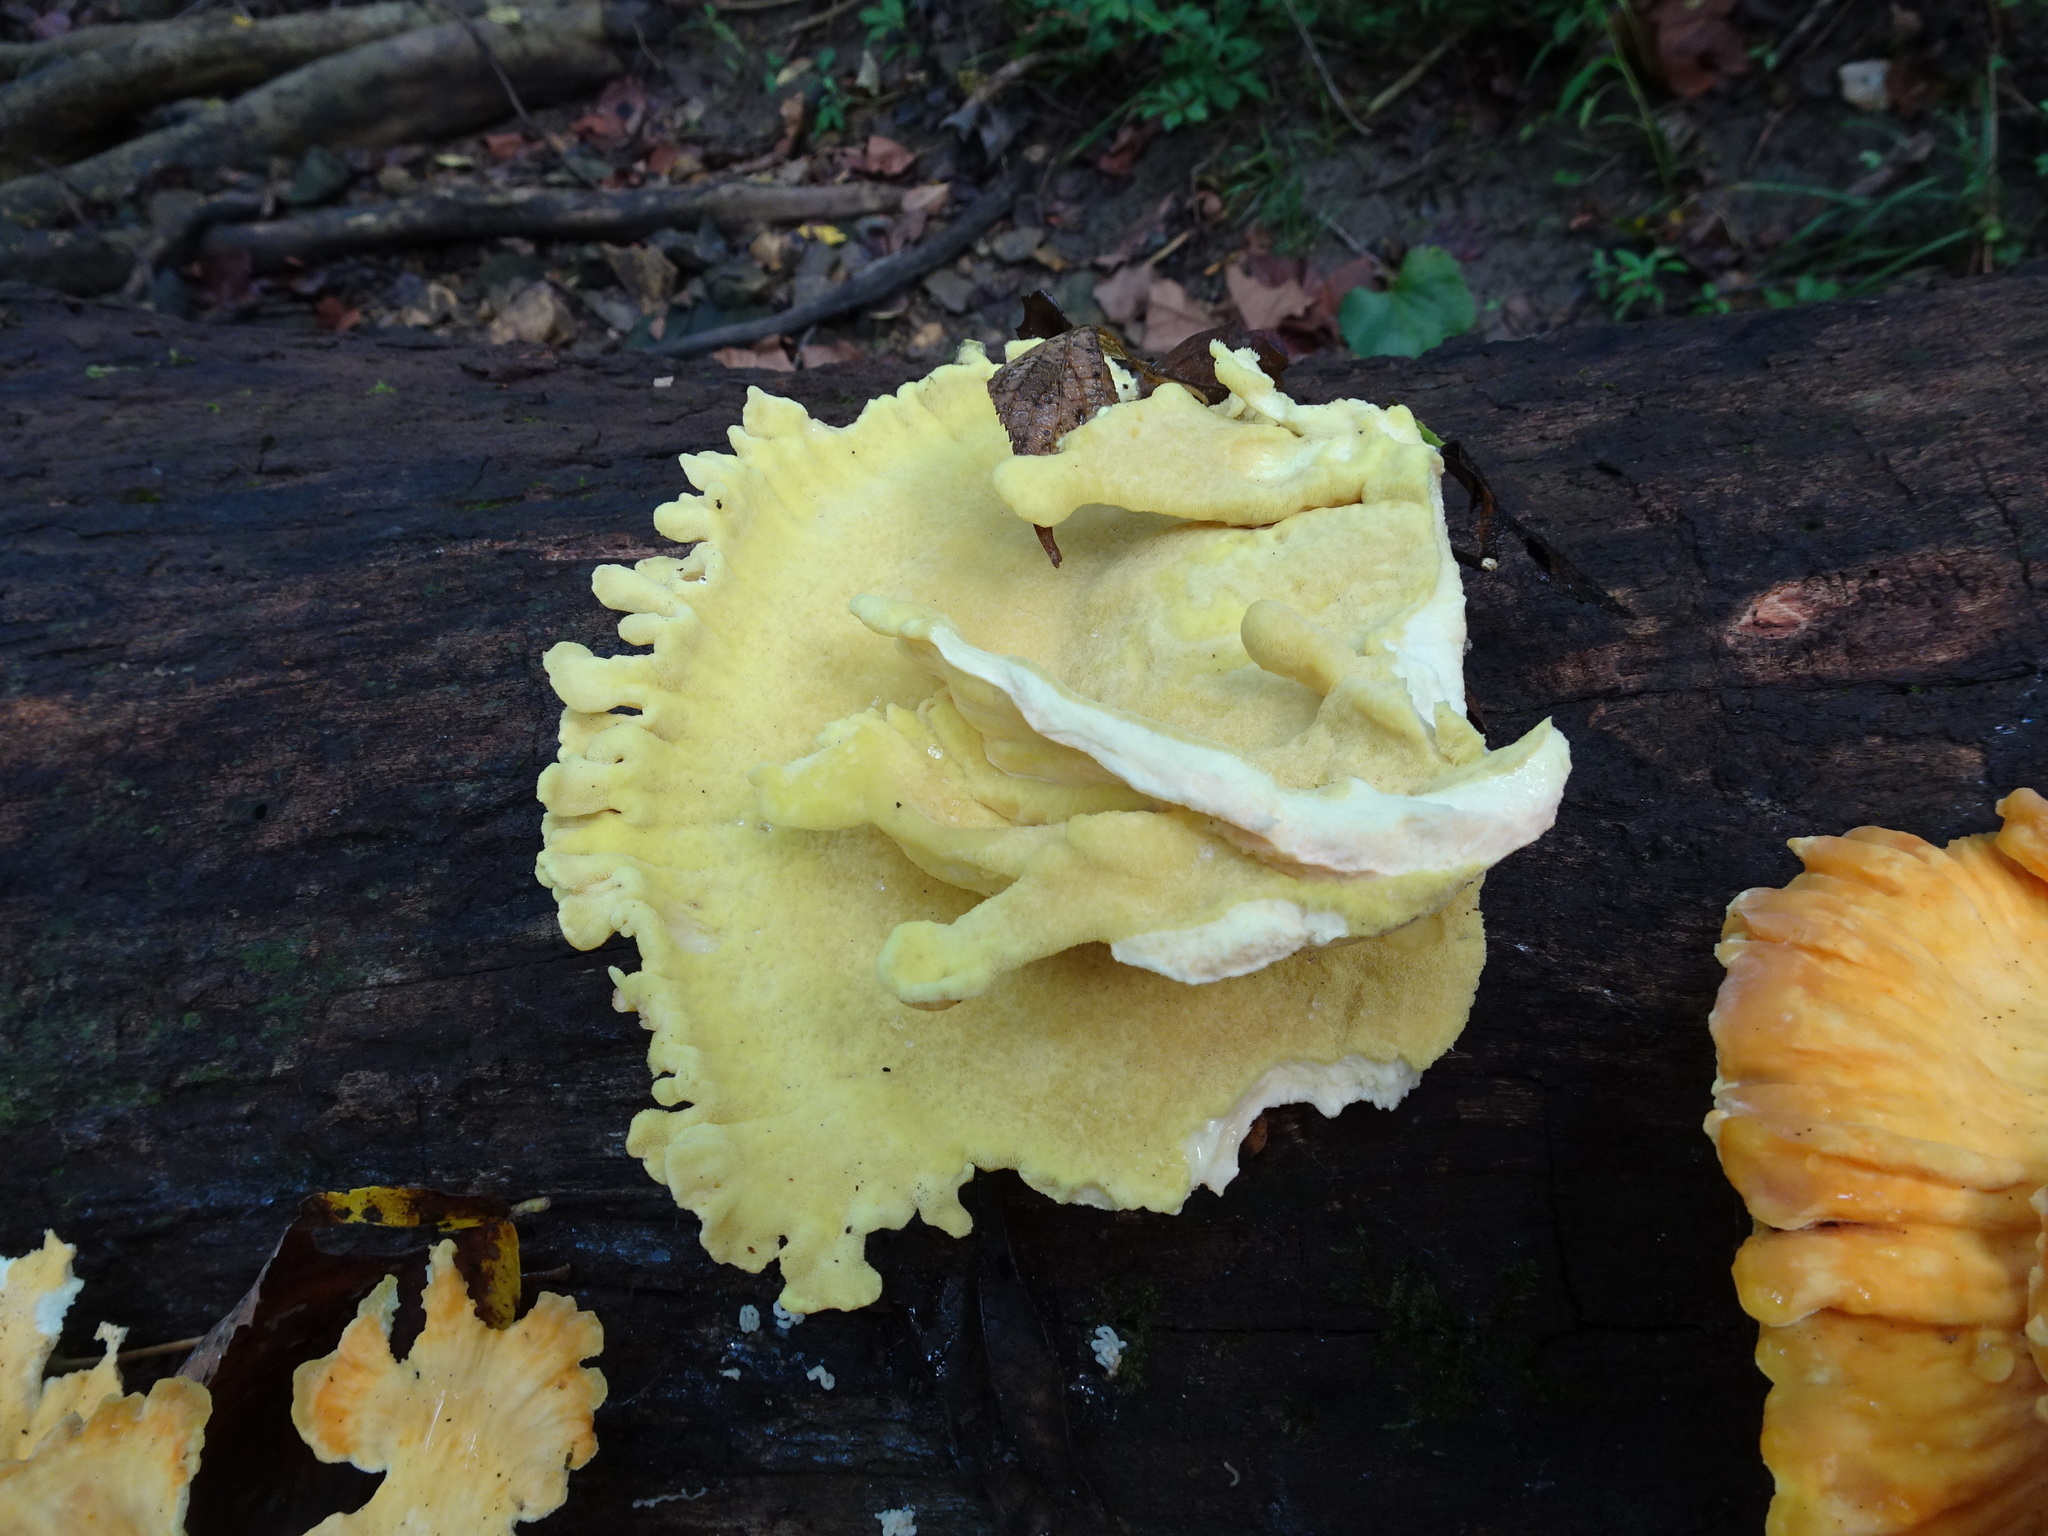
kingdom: Fungi
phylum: Basidiomycota
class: Agaricomycetes
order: Polyporales
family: Laetiporaceae
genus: Laetiporus
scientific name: Laetiporus sulphureus
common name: Chicken of the woods
